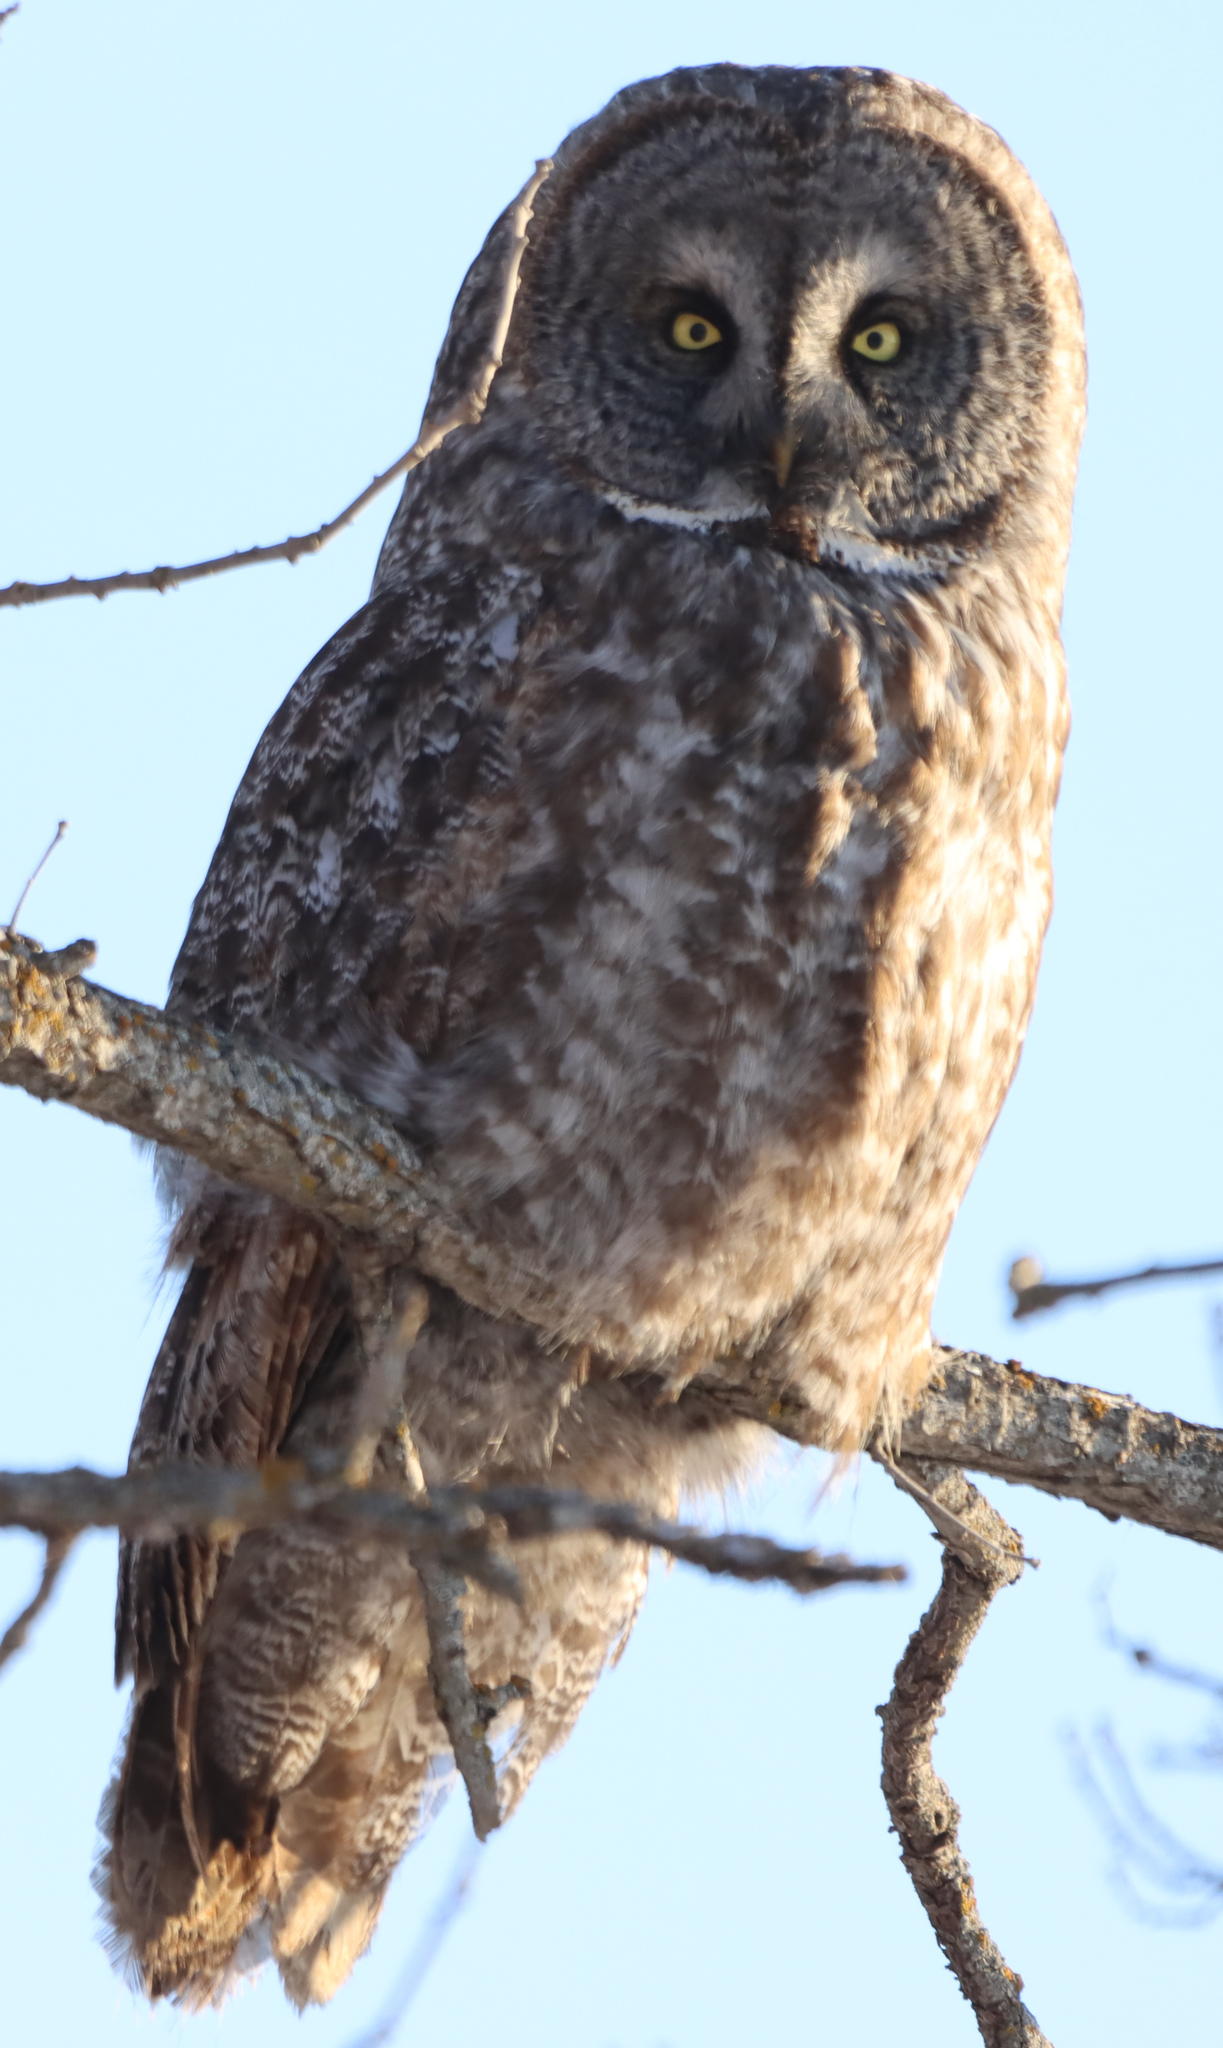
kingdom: Animalia
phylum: Chordata
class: Aves
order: Strigiformes
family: Strigidae
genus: Strix
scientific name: Strix nebulosa
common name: Great grey owl
